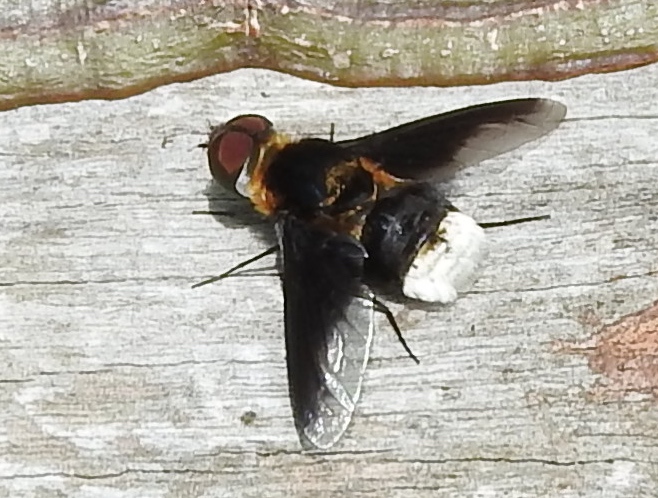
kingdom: Animalia
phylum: Arthropoda
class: Insecta
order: Diptera
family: Bombyliidae
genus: Hemipenthes
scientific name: Hemipenthes
